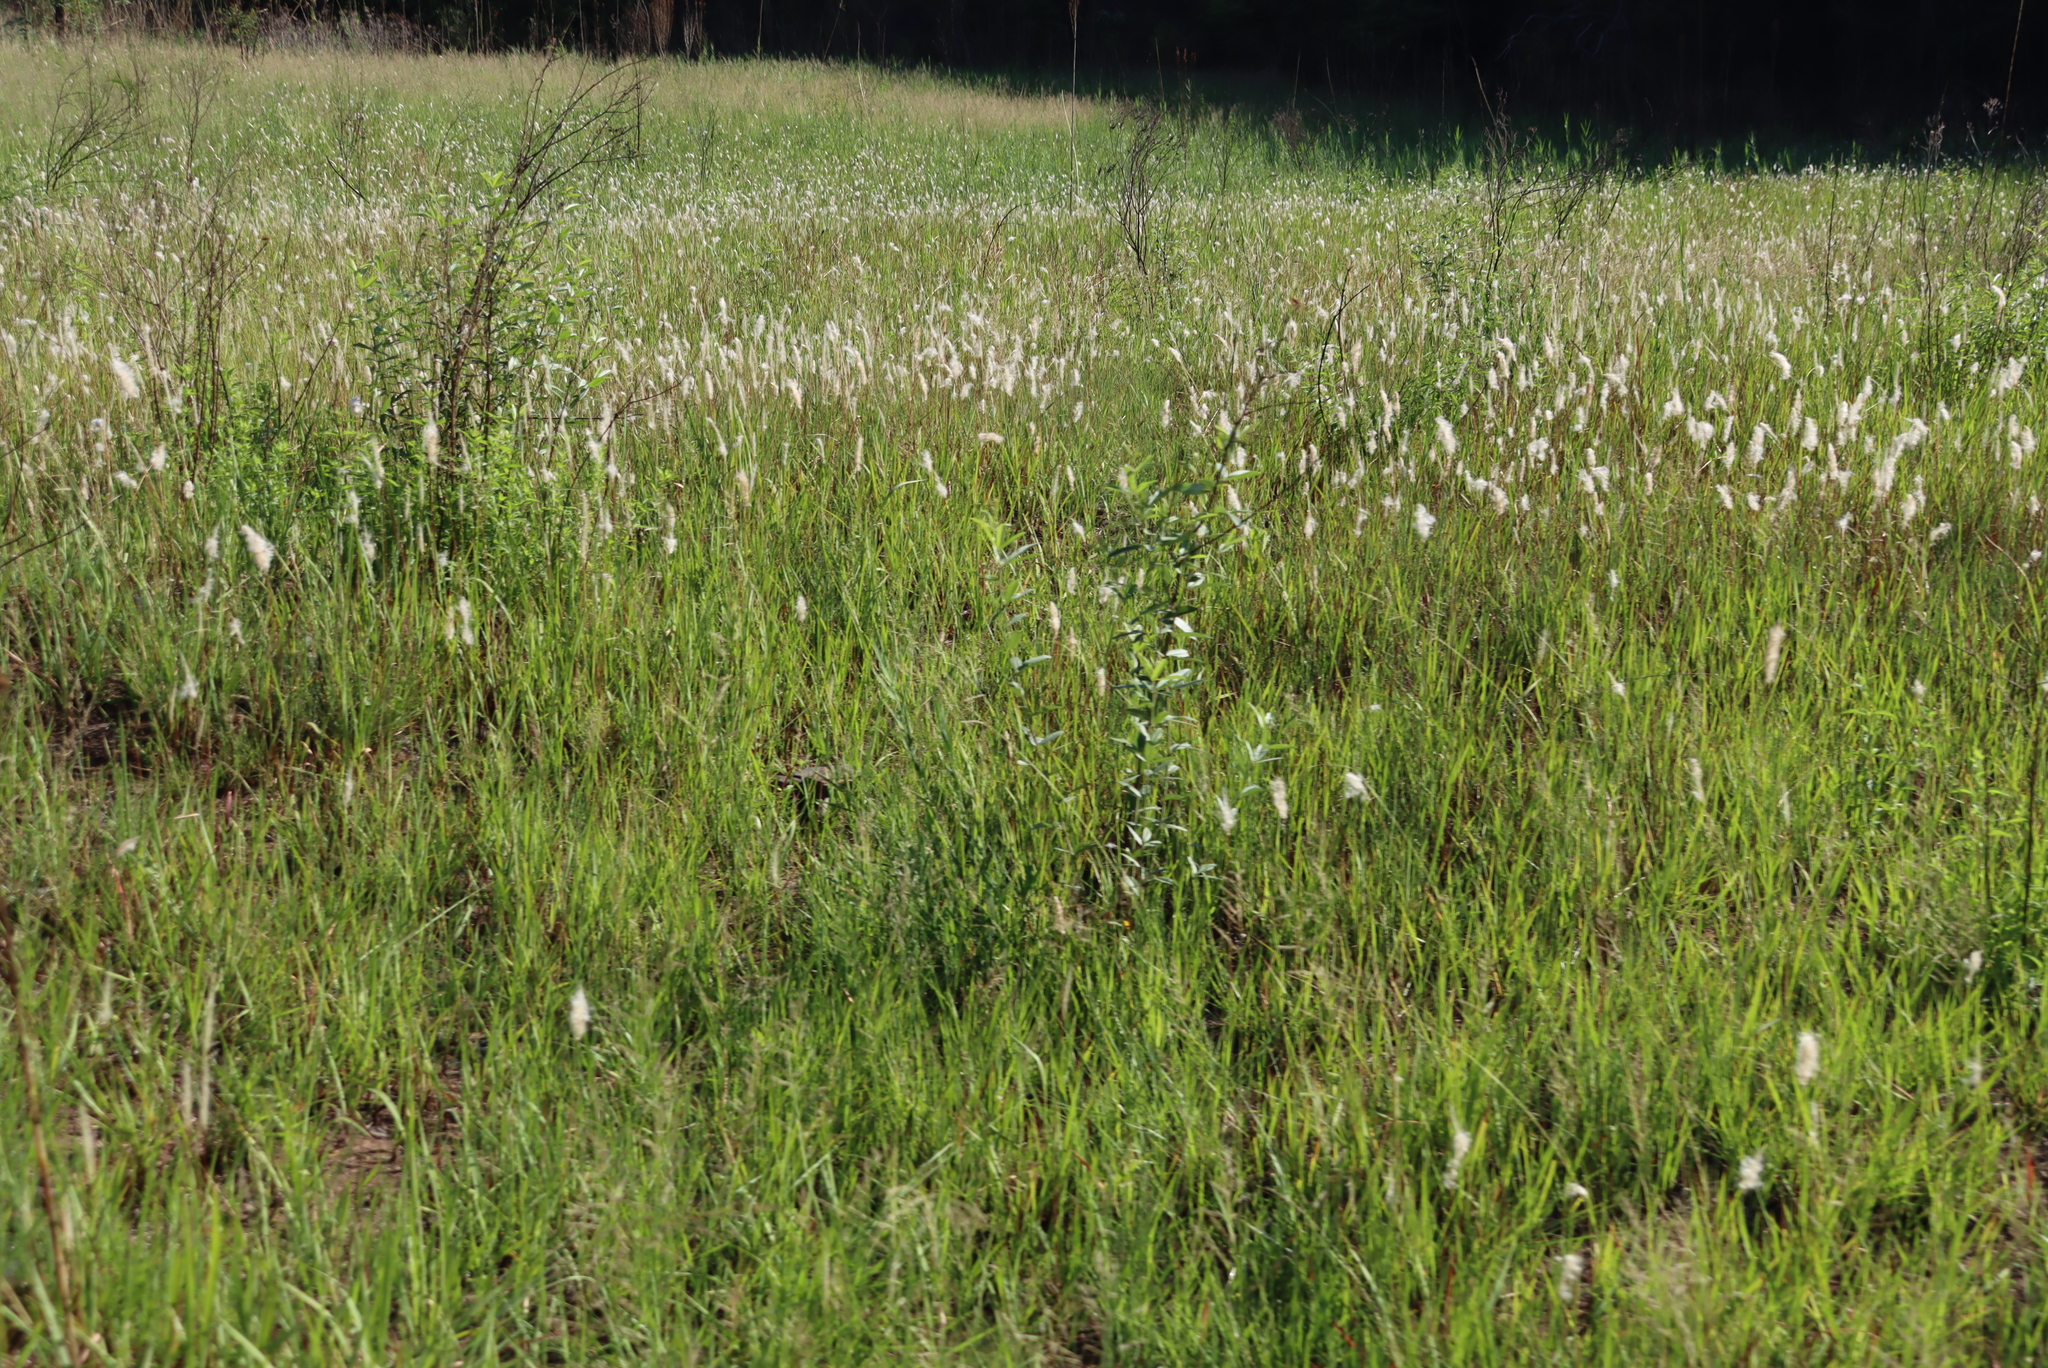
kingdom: Plantae
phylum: Tracheophyta
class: Liliopsida
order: Poales
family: Poaceae
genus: Imperata
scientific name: Imperata cylindrica
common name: Cogongrass
